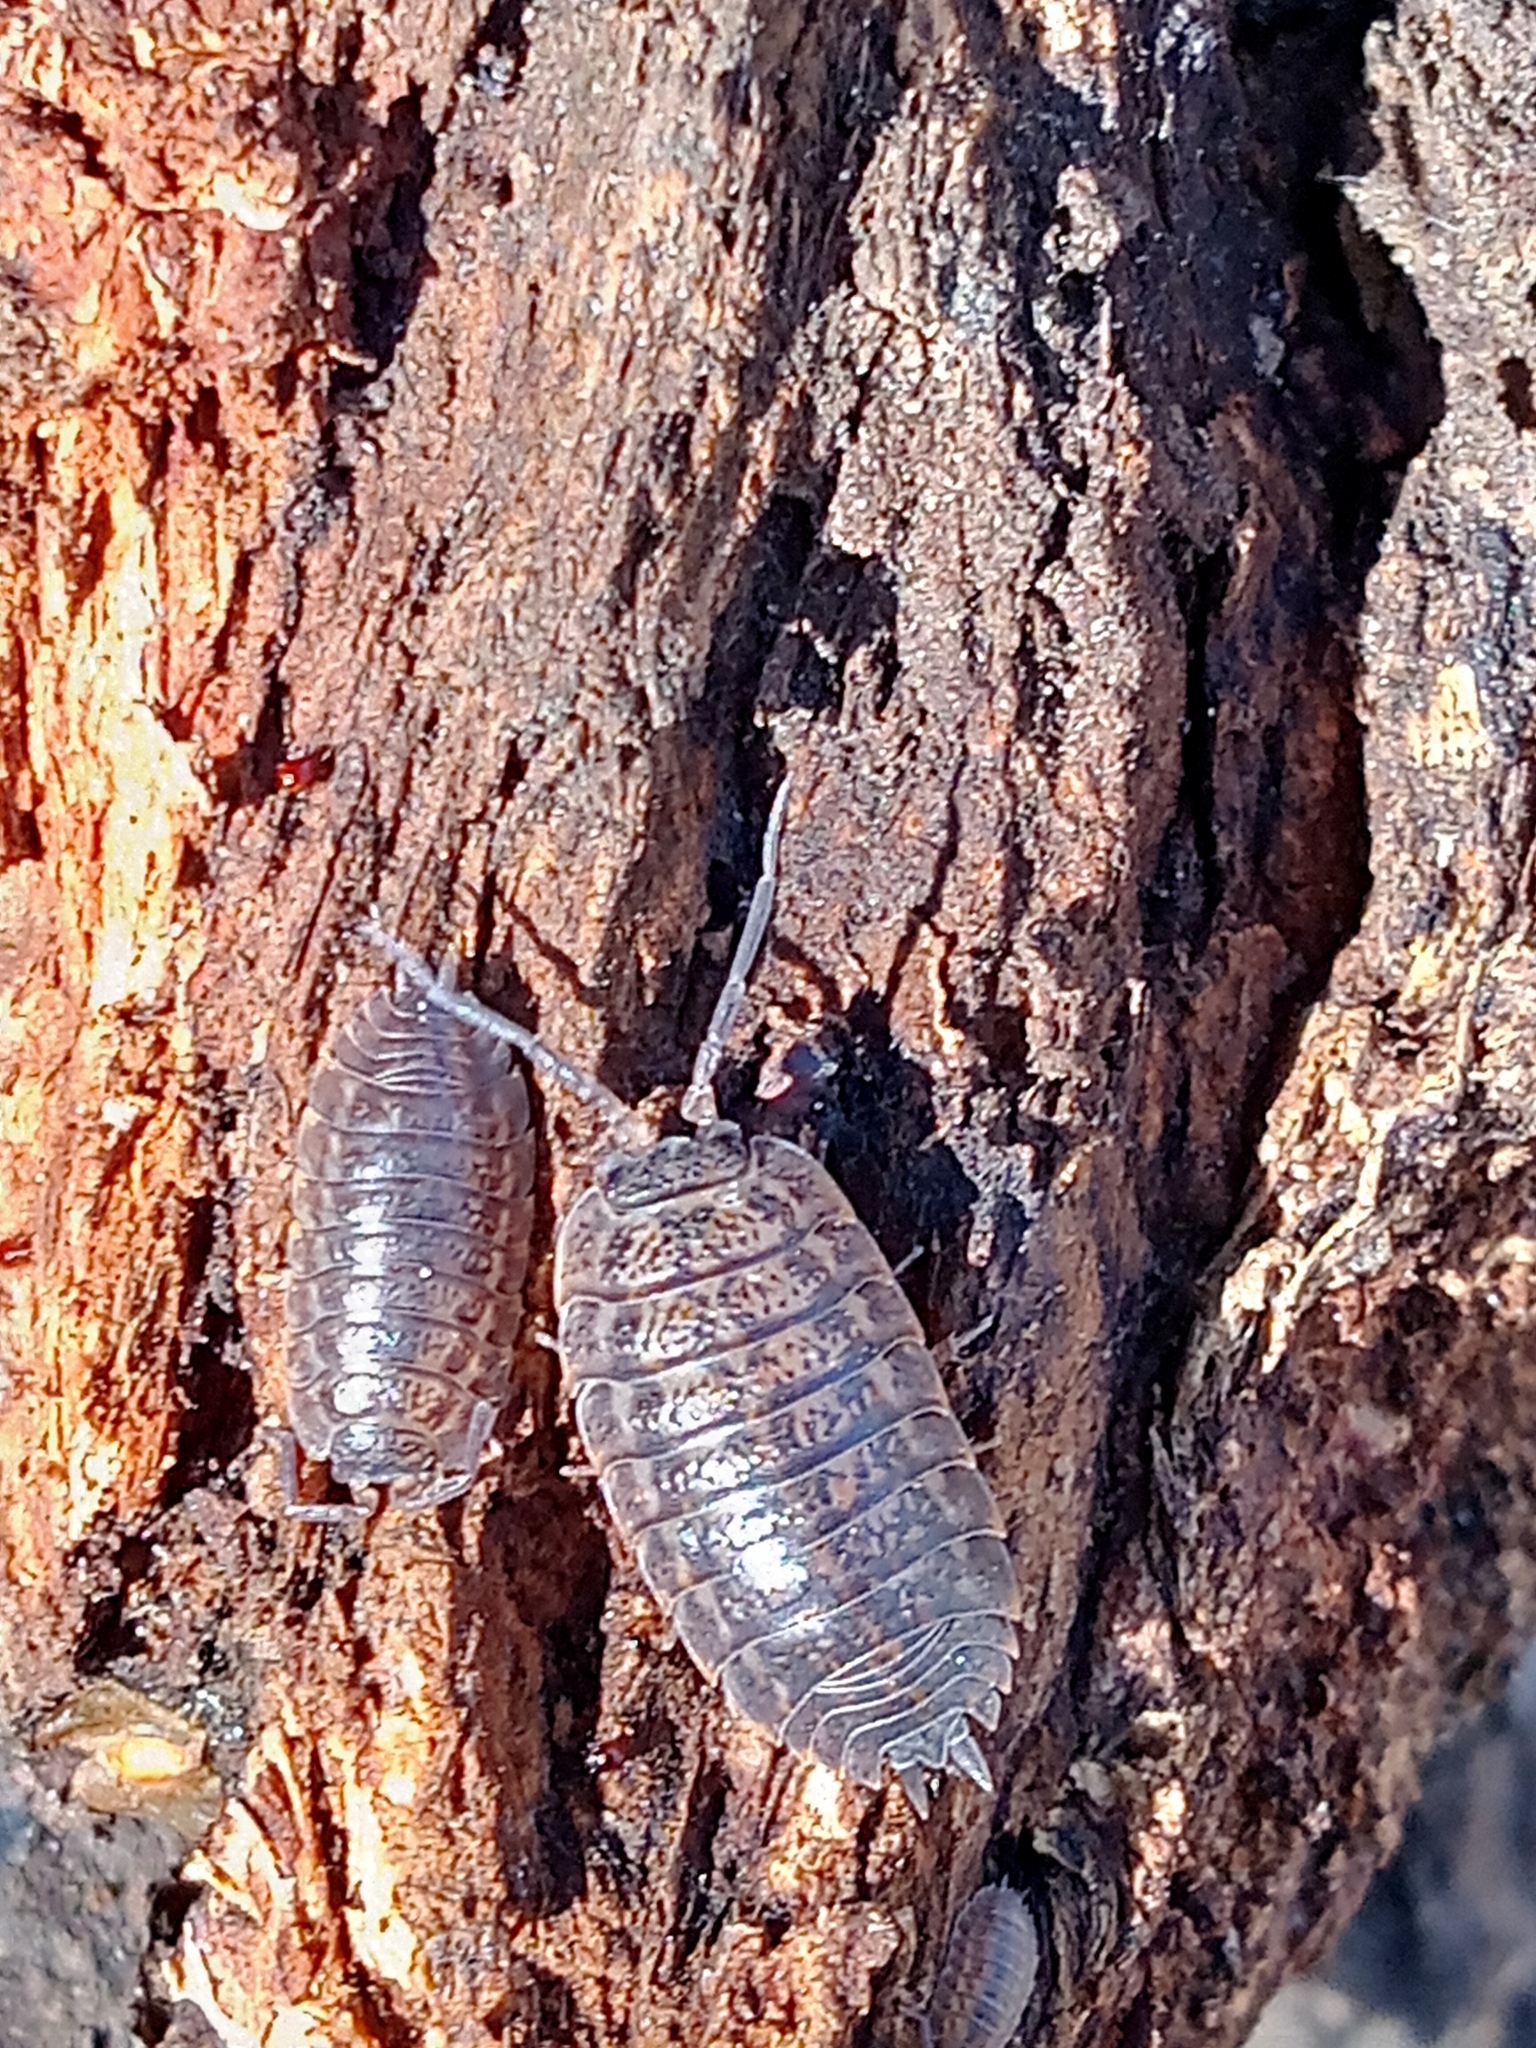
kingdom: Animalia
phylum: Arthropoda
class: Malacostraca
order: Isopoda
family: Trachelipodidae
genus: Trachelipus
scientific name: Trachelipus rathkii
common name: Isopod
